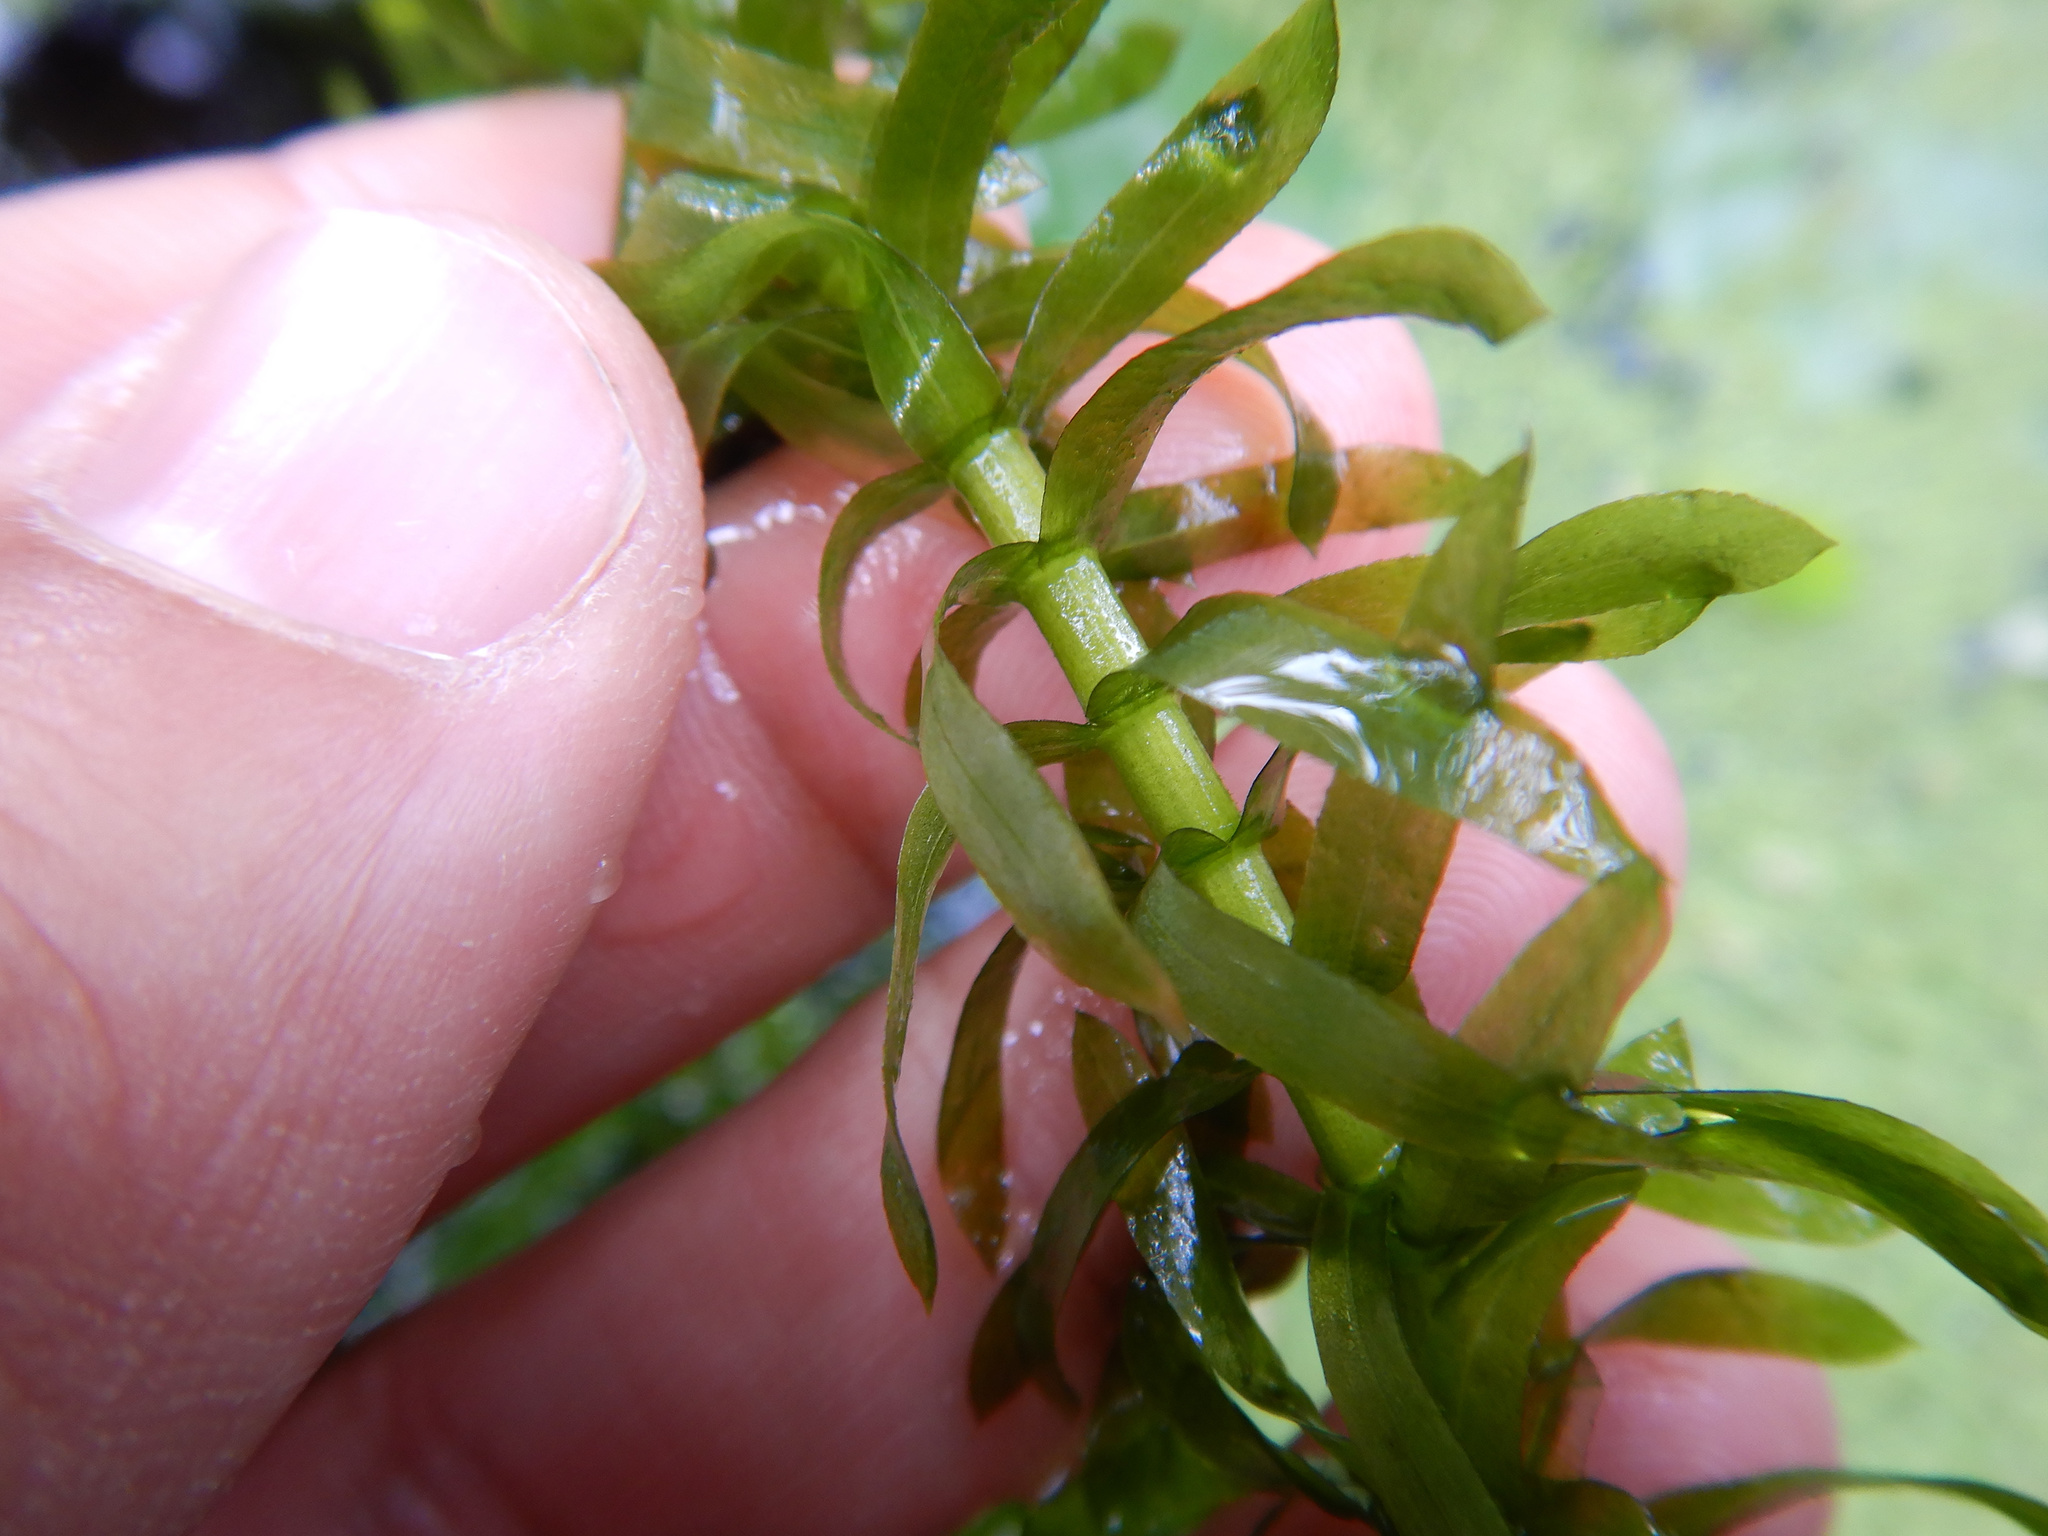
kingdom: Plantae
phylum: Tracheophyta
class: Liliopsida
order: Alismatales
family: Hydrocharitaceae
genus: Elodea
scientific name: Elodea densa
